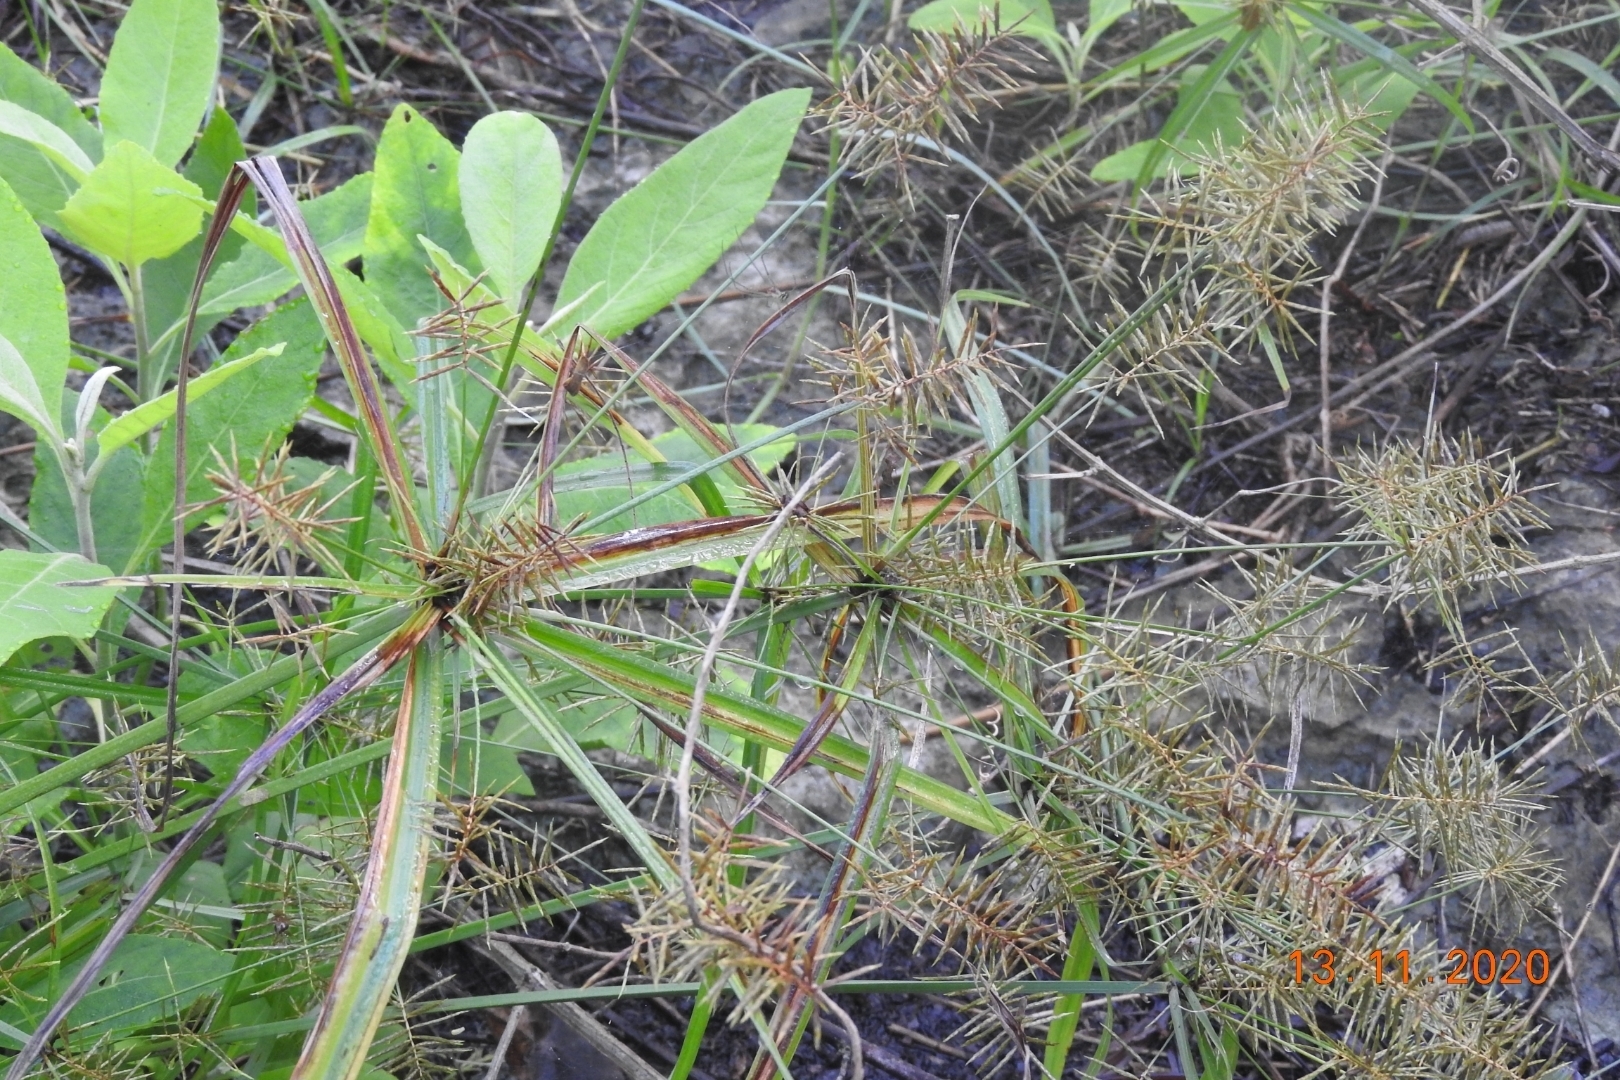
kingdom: Plantae
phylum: Tracheophyta
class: Liliopsida
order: Poales
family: Cyperaceae
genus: Cyperus
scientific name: Cyperus ligularis
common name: Swamp flat sedge
